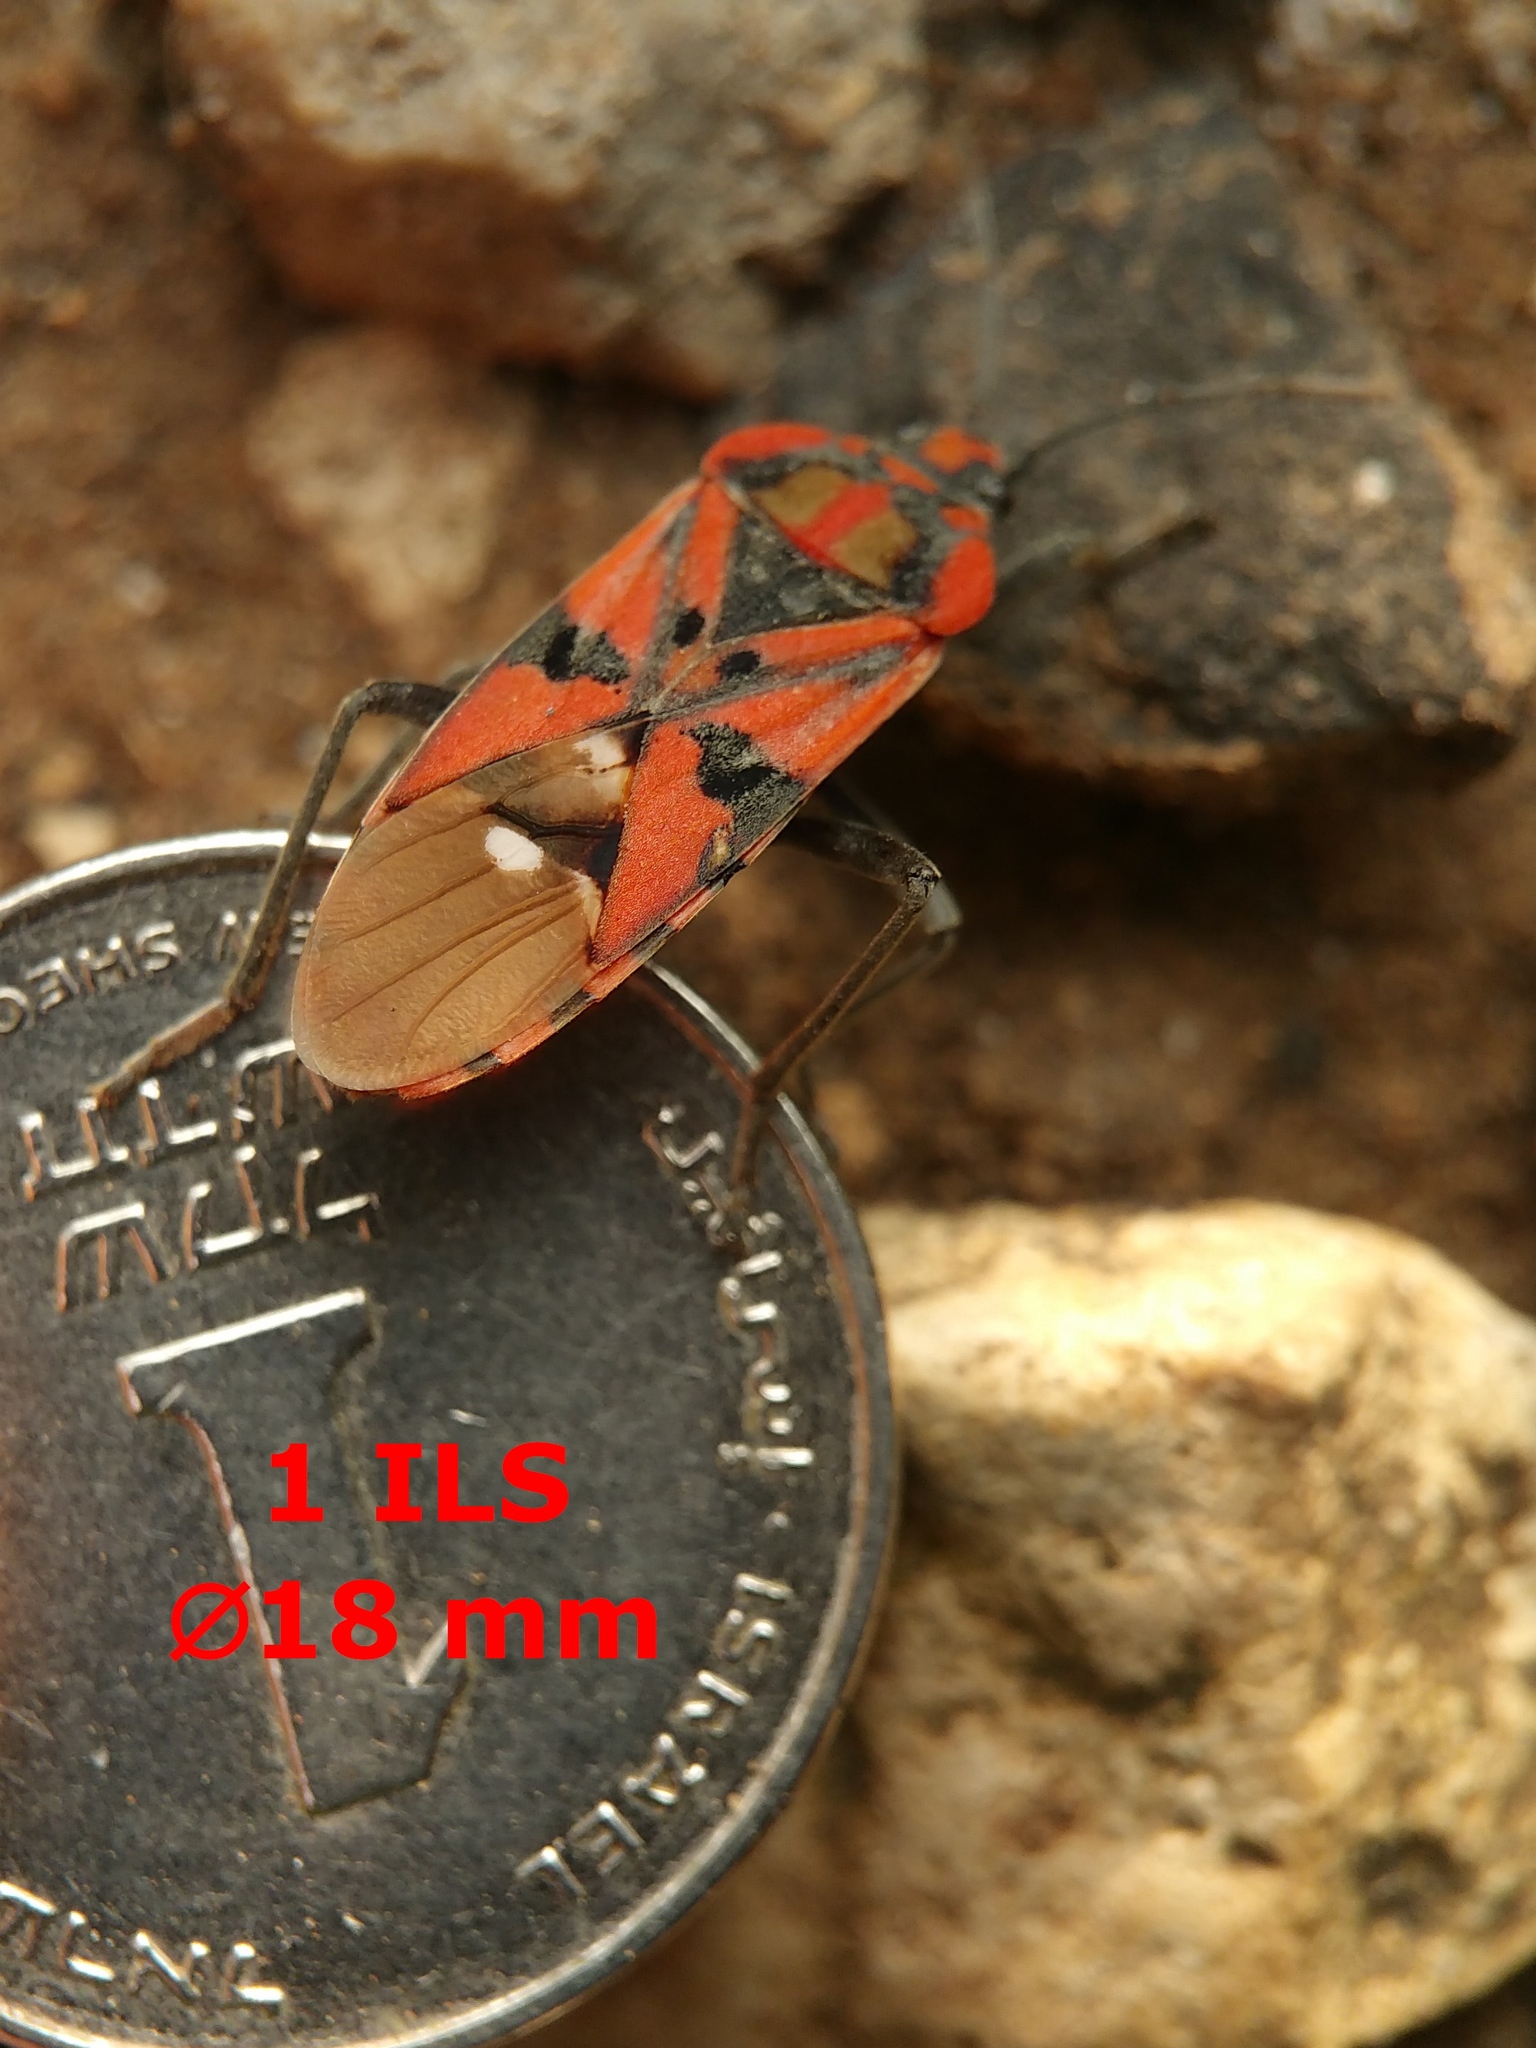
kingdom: Animalia
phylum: Arthropoda
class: Insecta
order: Hemiptera
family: Lygaeidae
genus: Spilostethus
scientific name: Spilostethus pandurus
